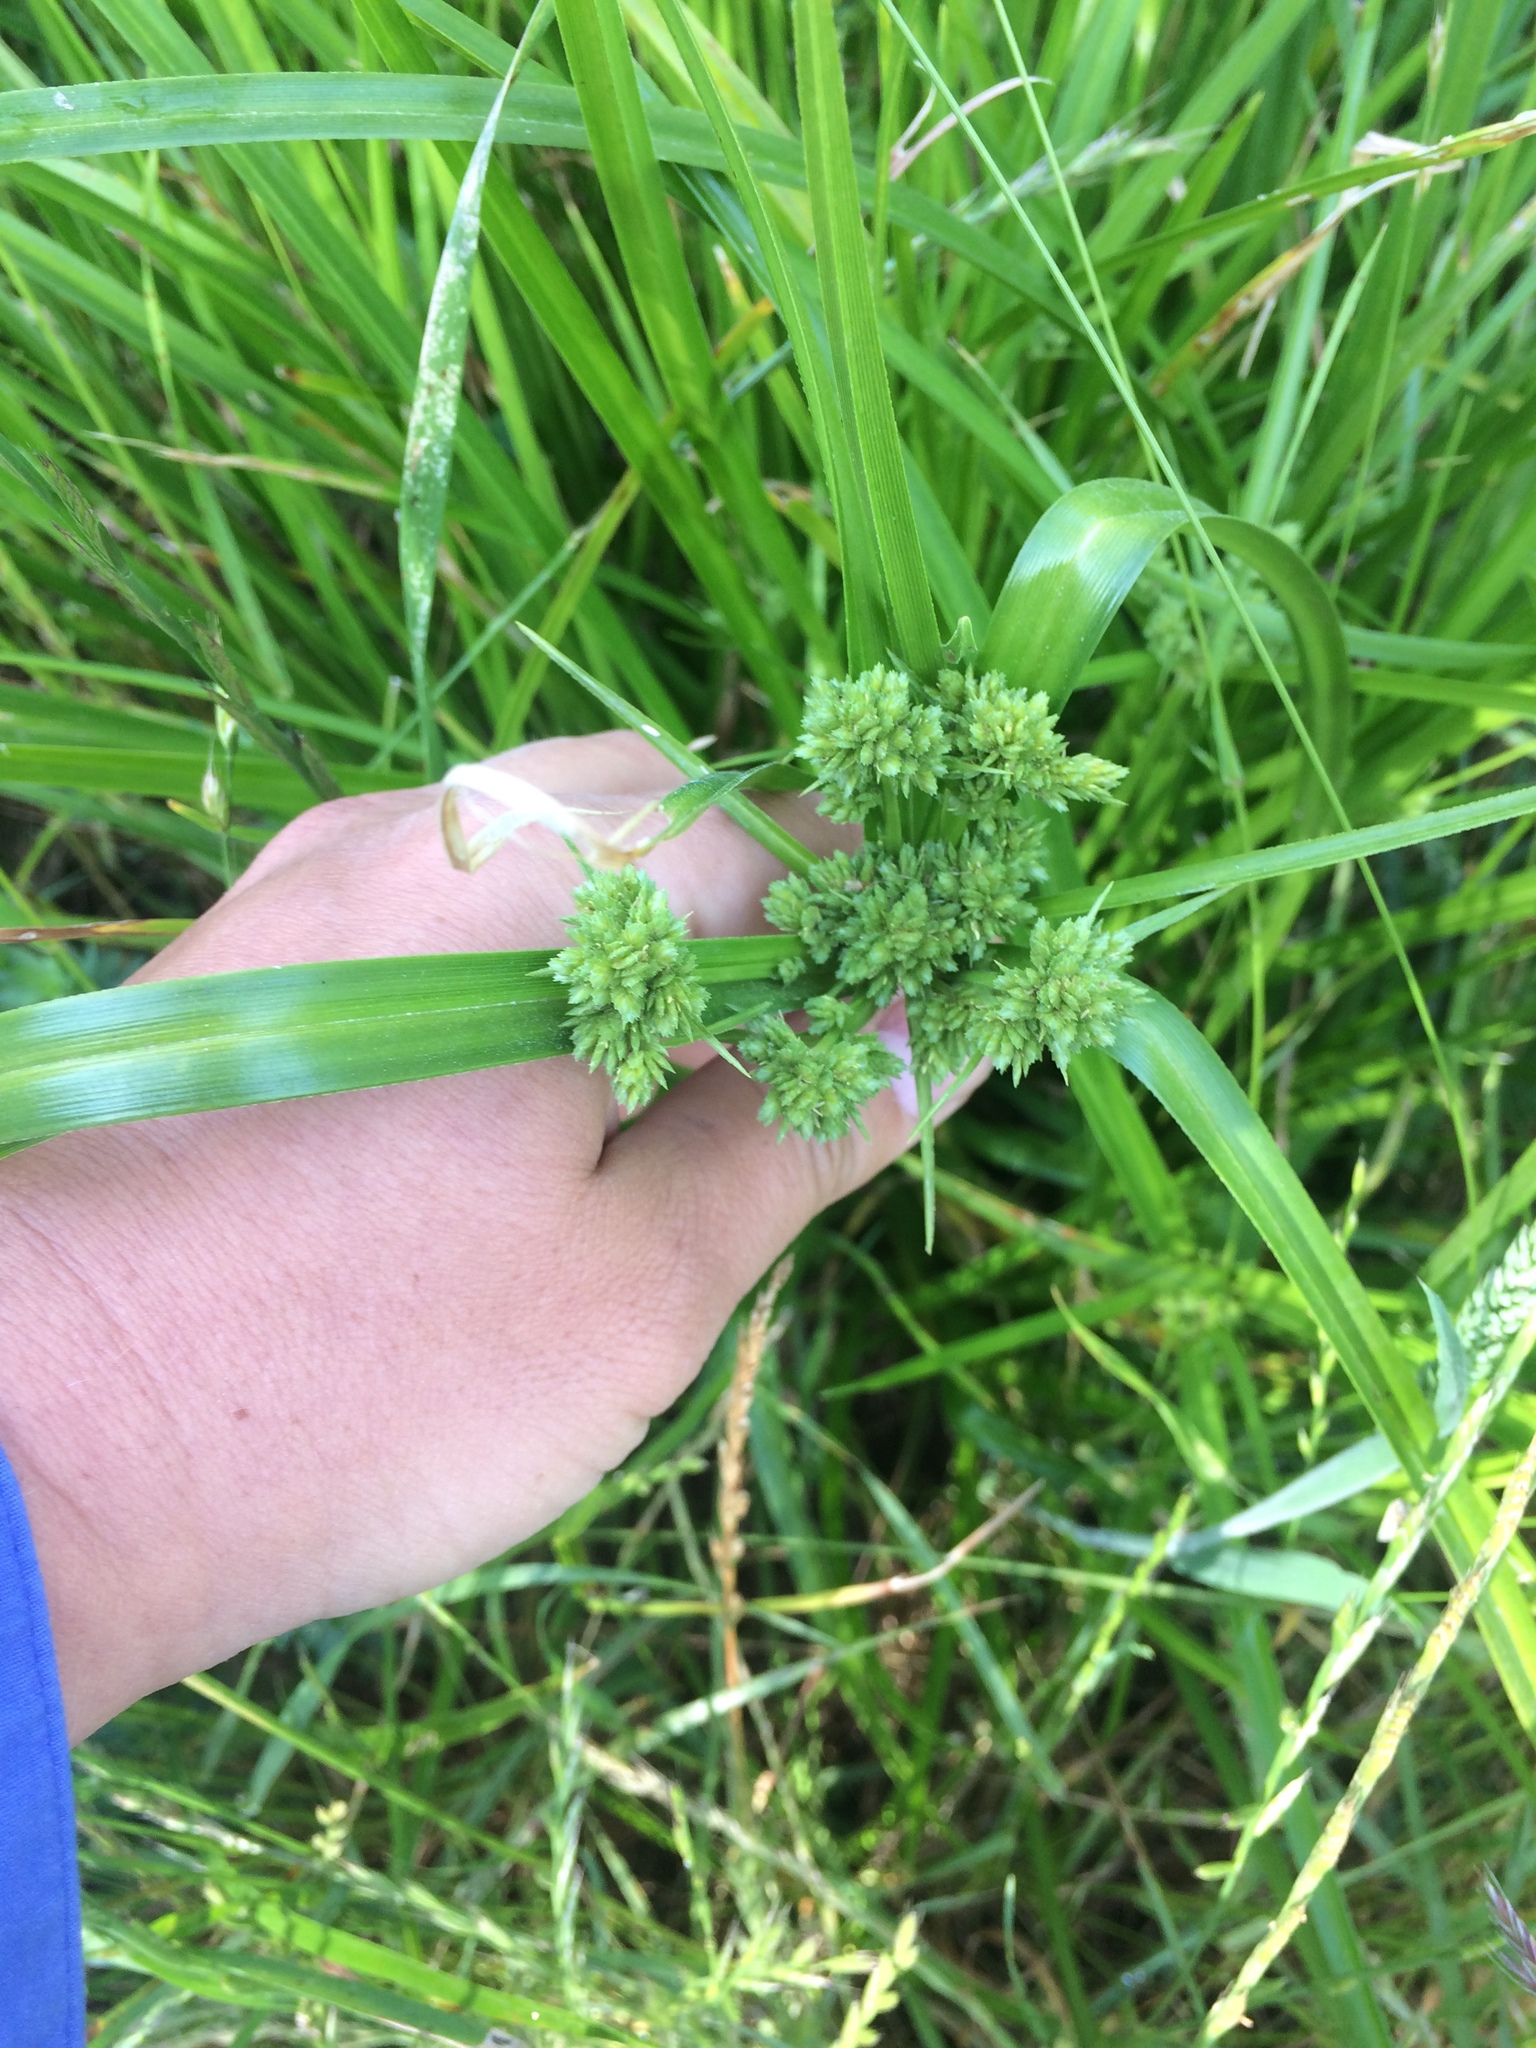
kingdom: Plantae
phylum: Tracheophyta
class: Liliopsida
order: Poales
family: Cyperaceae
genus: Cyperus
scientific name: Cyperus eragrostis
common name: Tall flatsedge
